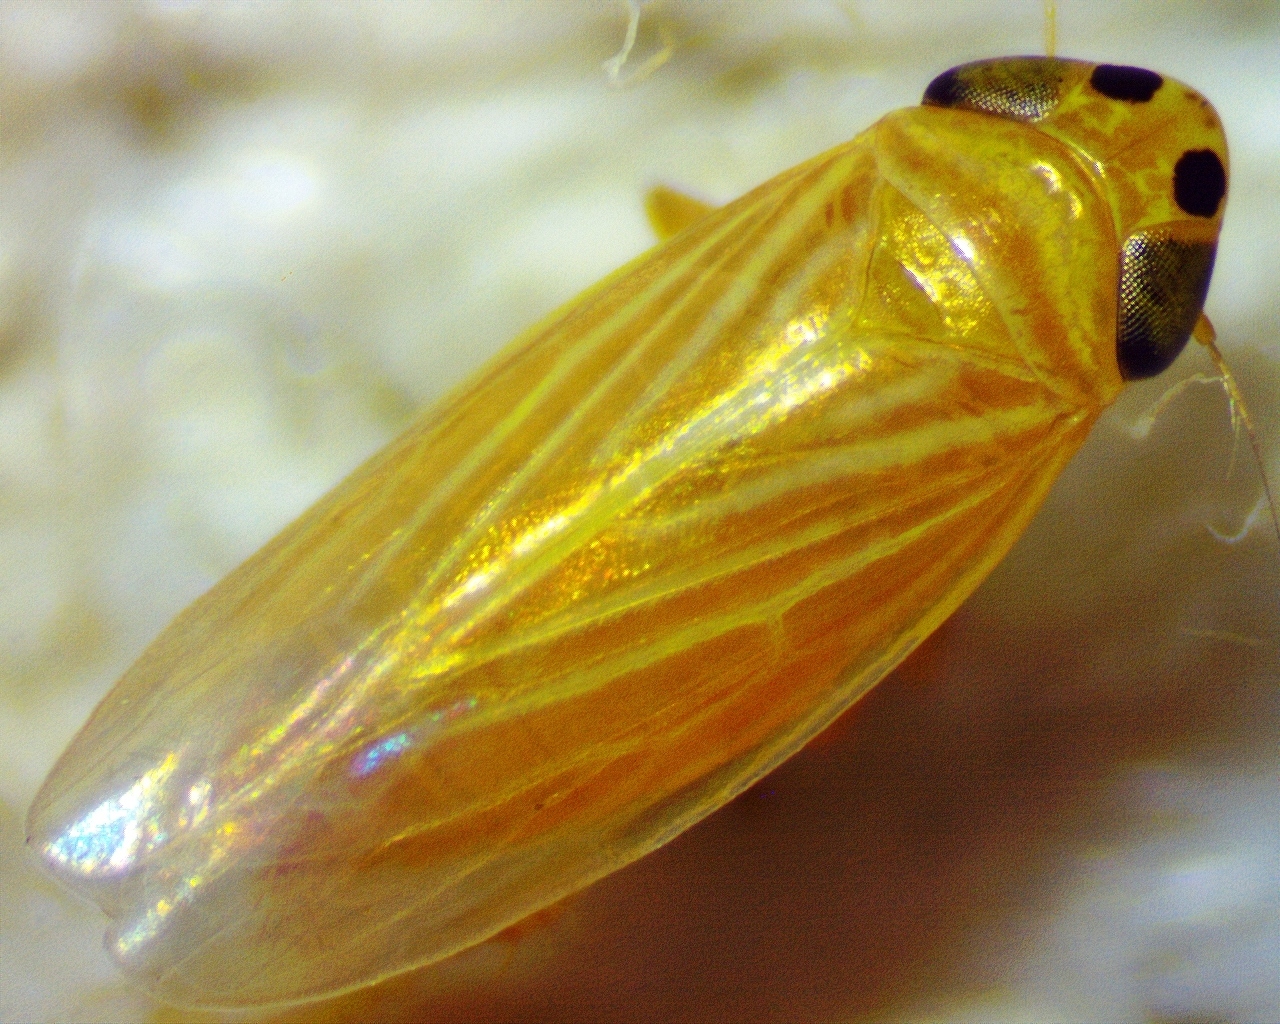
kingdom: Animalia
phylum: Arthropoda
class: Insecta
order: Hemiptera
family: Cicadellidae
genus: Graminella
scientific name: Graminella villicus
